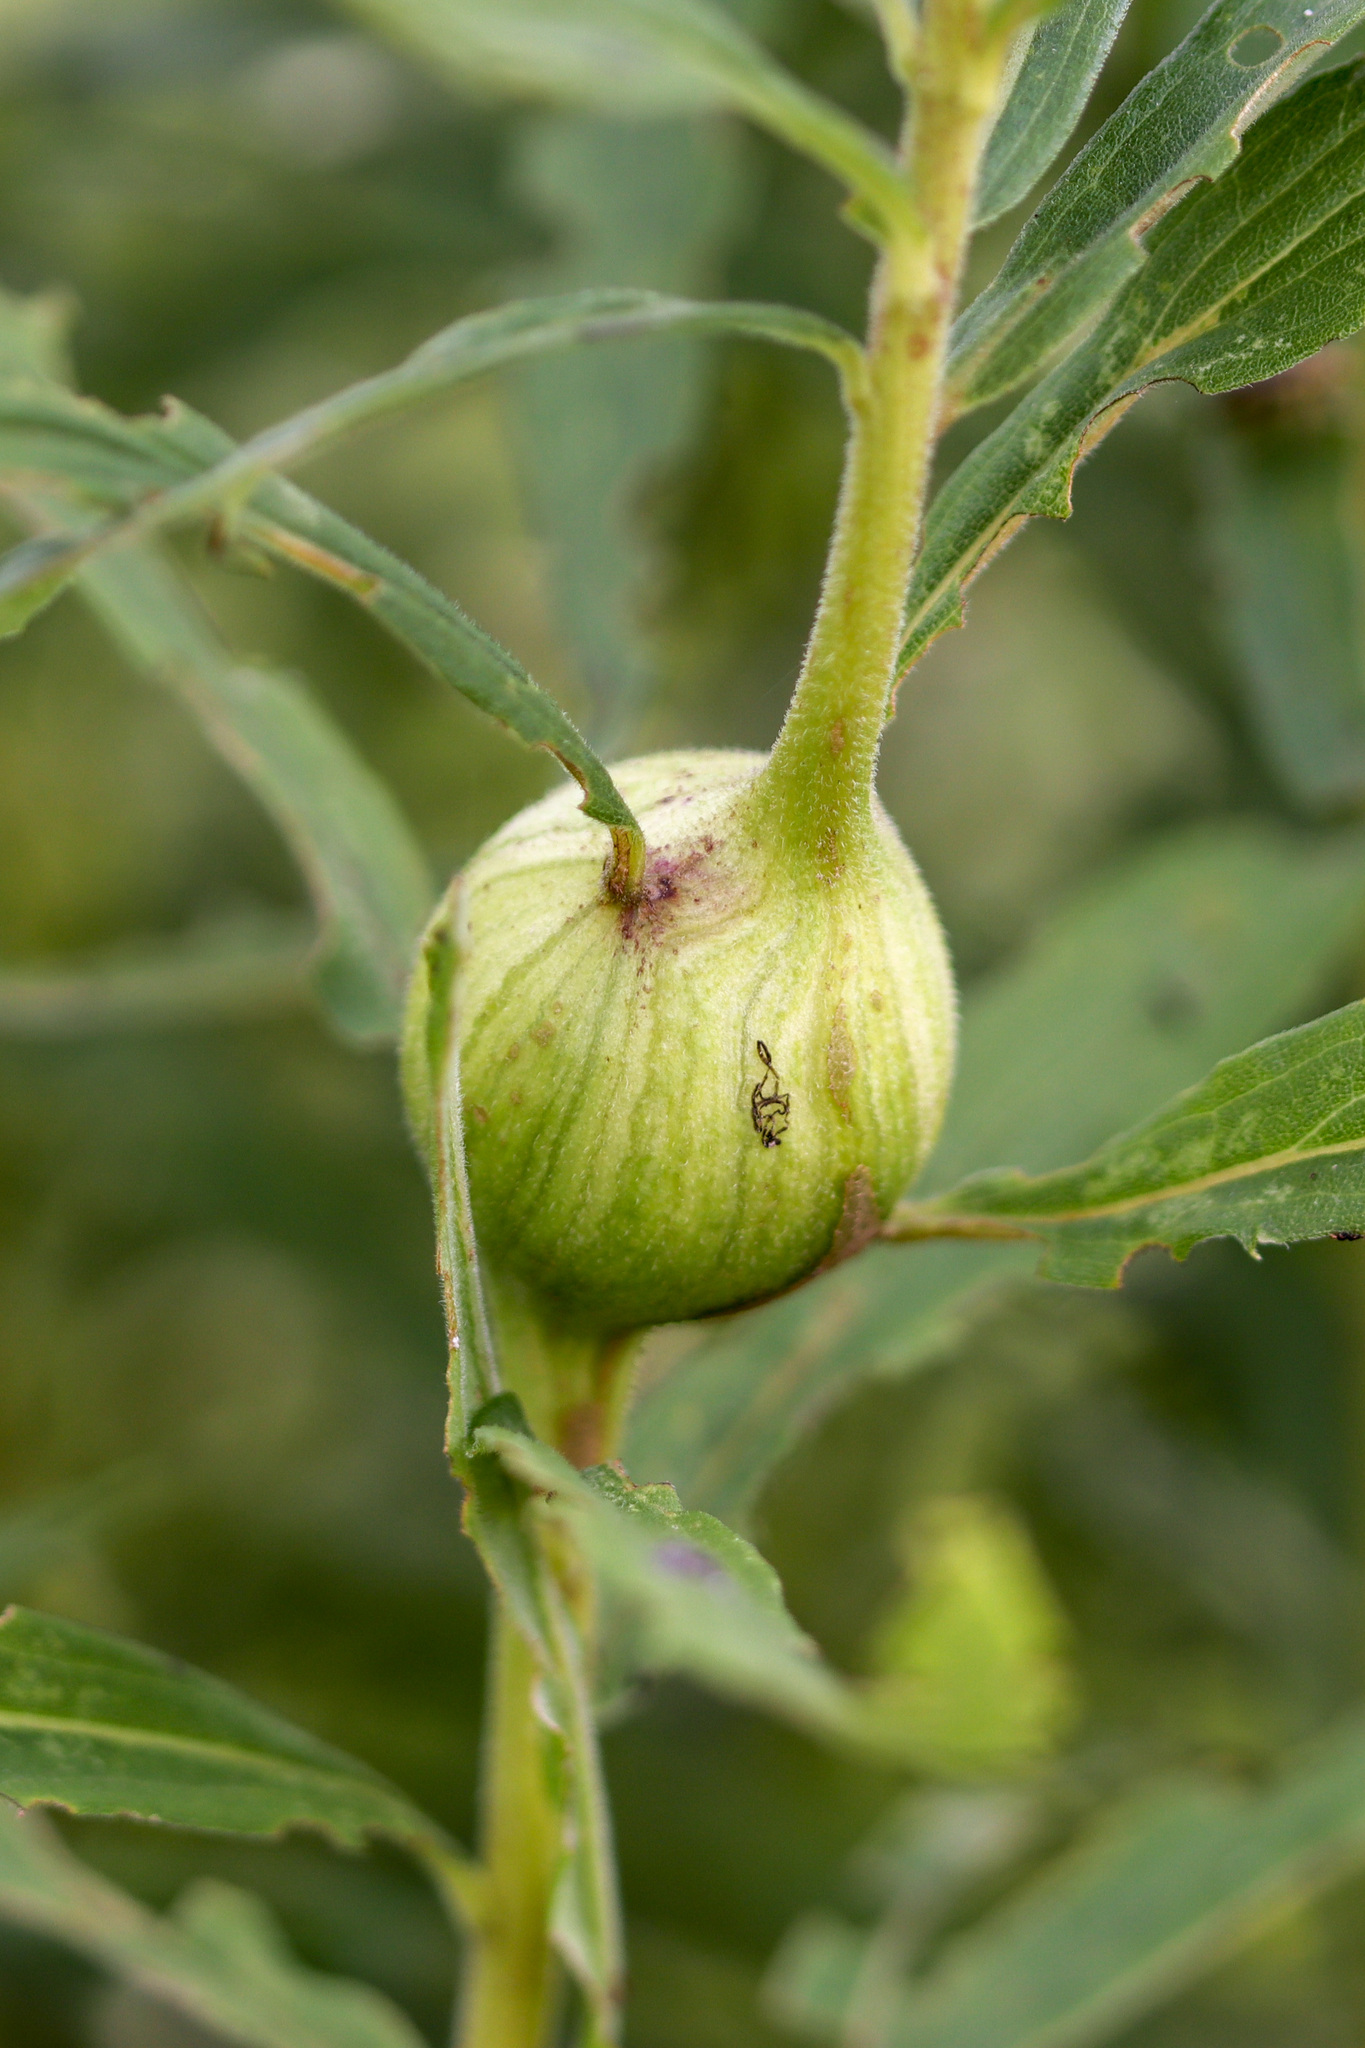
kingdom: Animalia
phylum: Arthropoda
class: Insecta
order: Diptera
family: Tephritidae
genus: Eurosta
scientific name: Eurosta solidaginis
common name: Goldenrod gall fly
